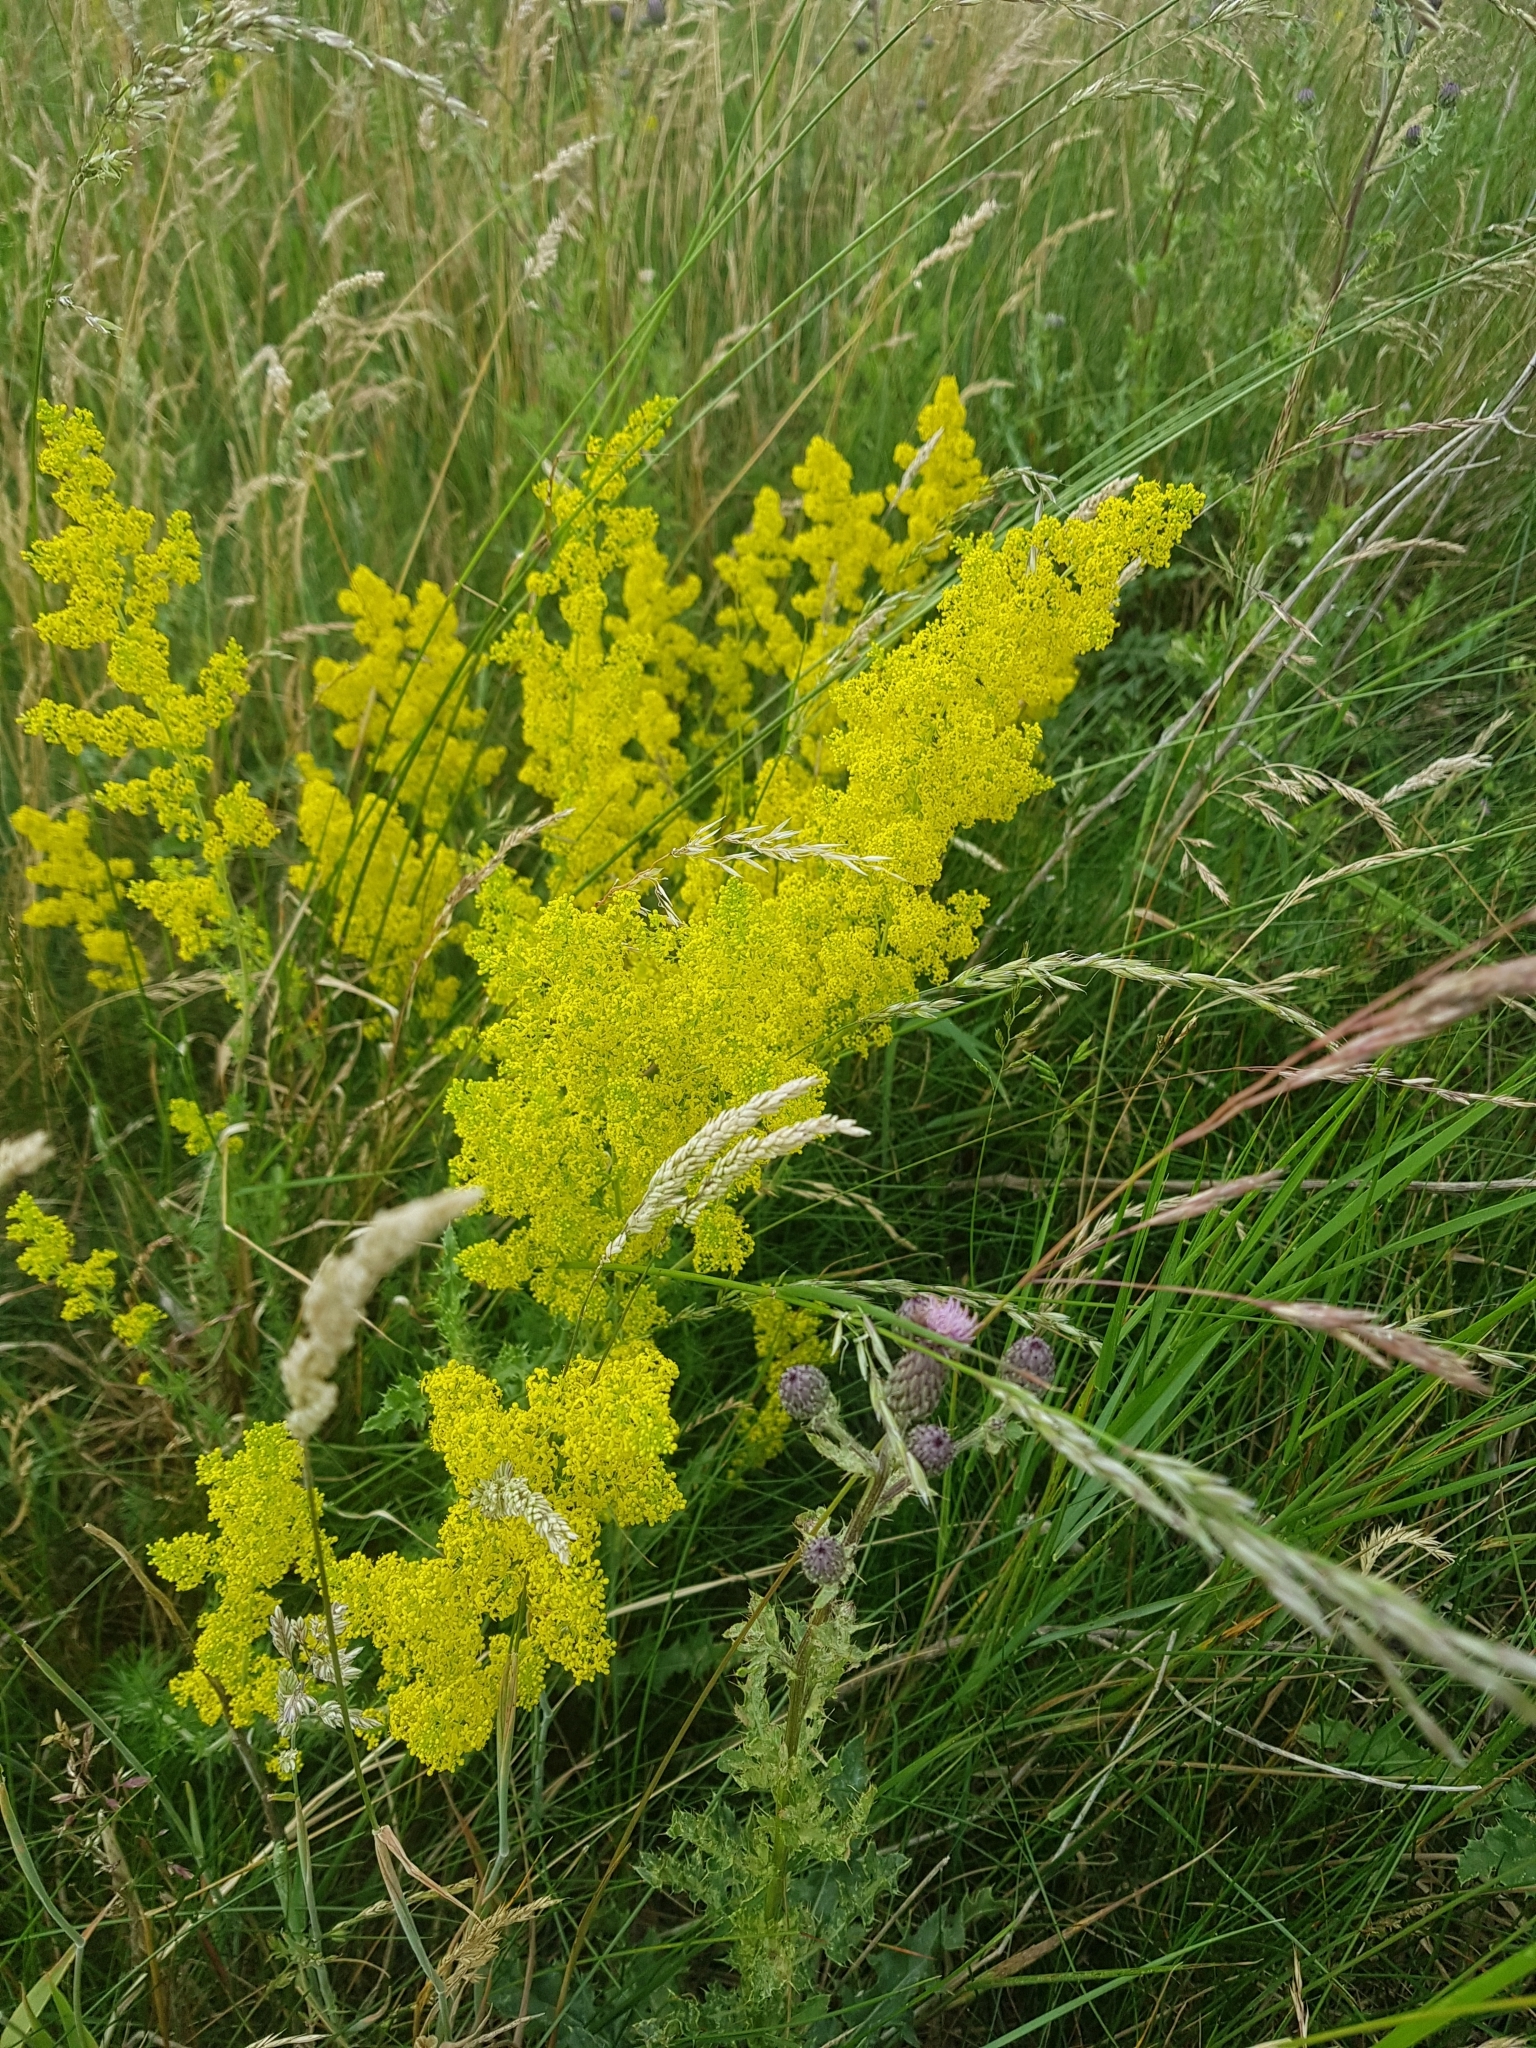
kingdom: Plantae
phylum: Tracheophyta
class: Magnoliopsida
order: Gentianales
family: Rubiaceae
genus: Galium
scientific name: Galium verum
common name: Lady's bedstraw
